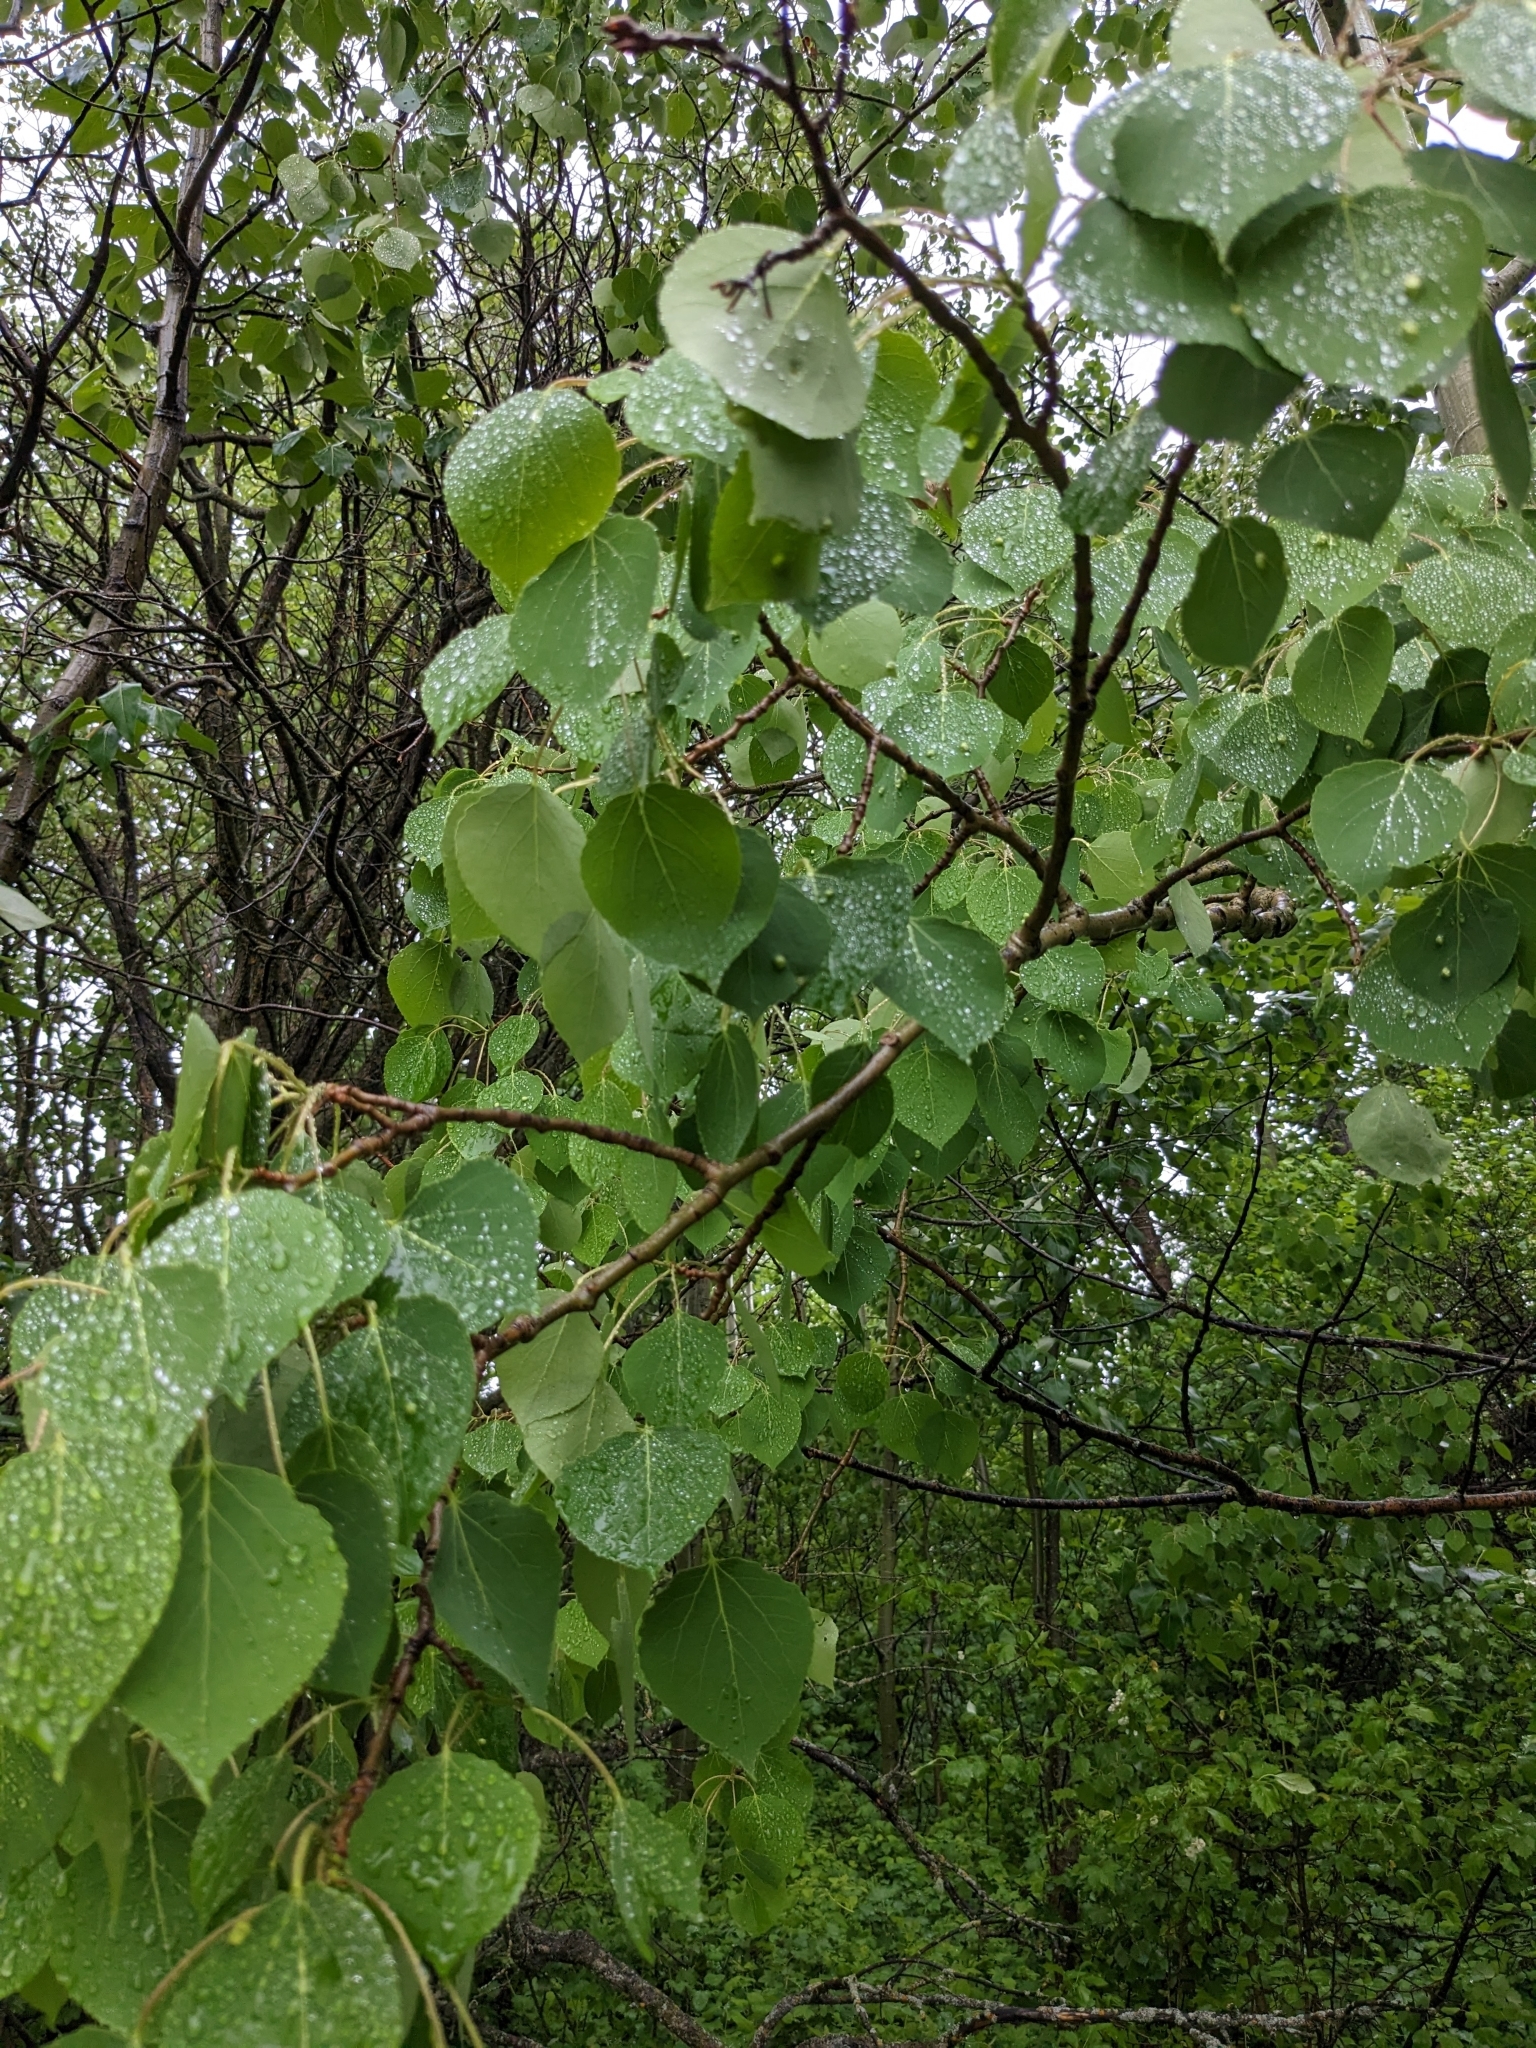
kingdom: Plantae
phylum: Tracheophyta
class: Magnoliopsida
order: Malpighiales
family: Salicaceae
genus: Populus
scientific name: Populus tremuloides
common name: Quaking aspen
